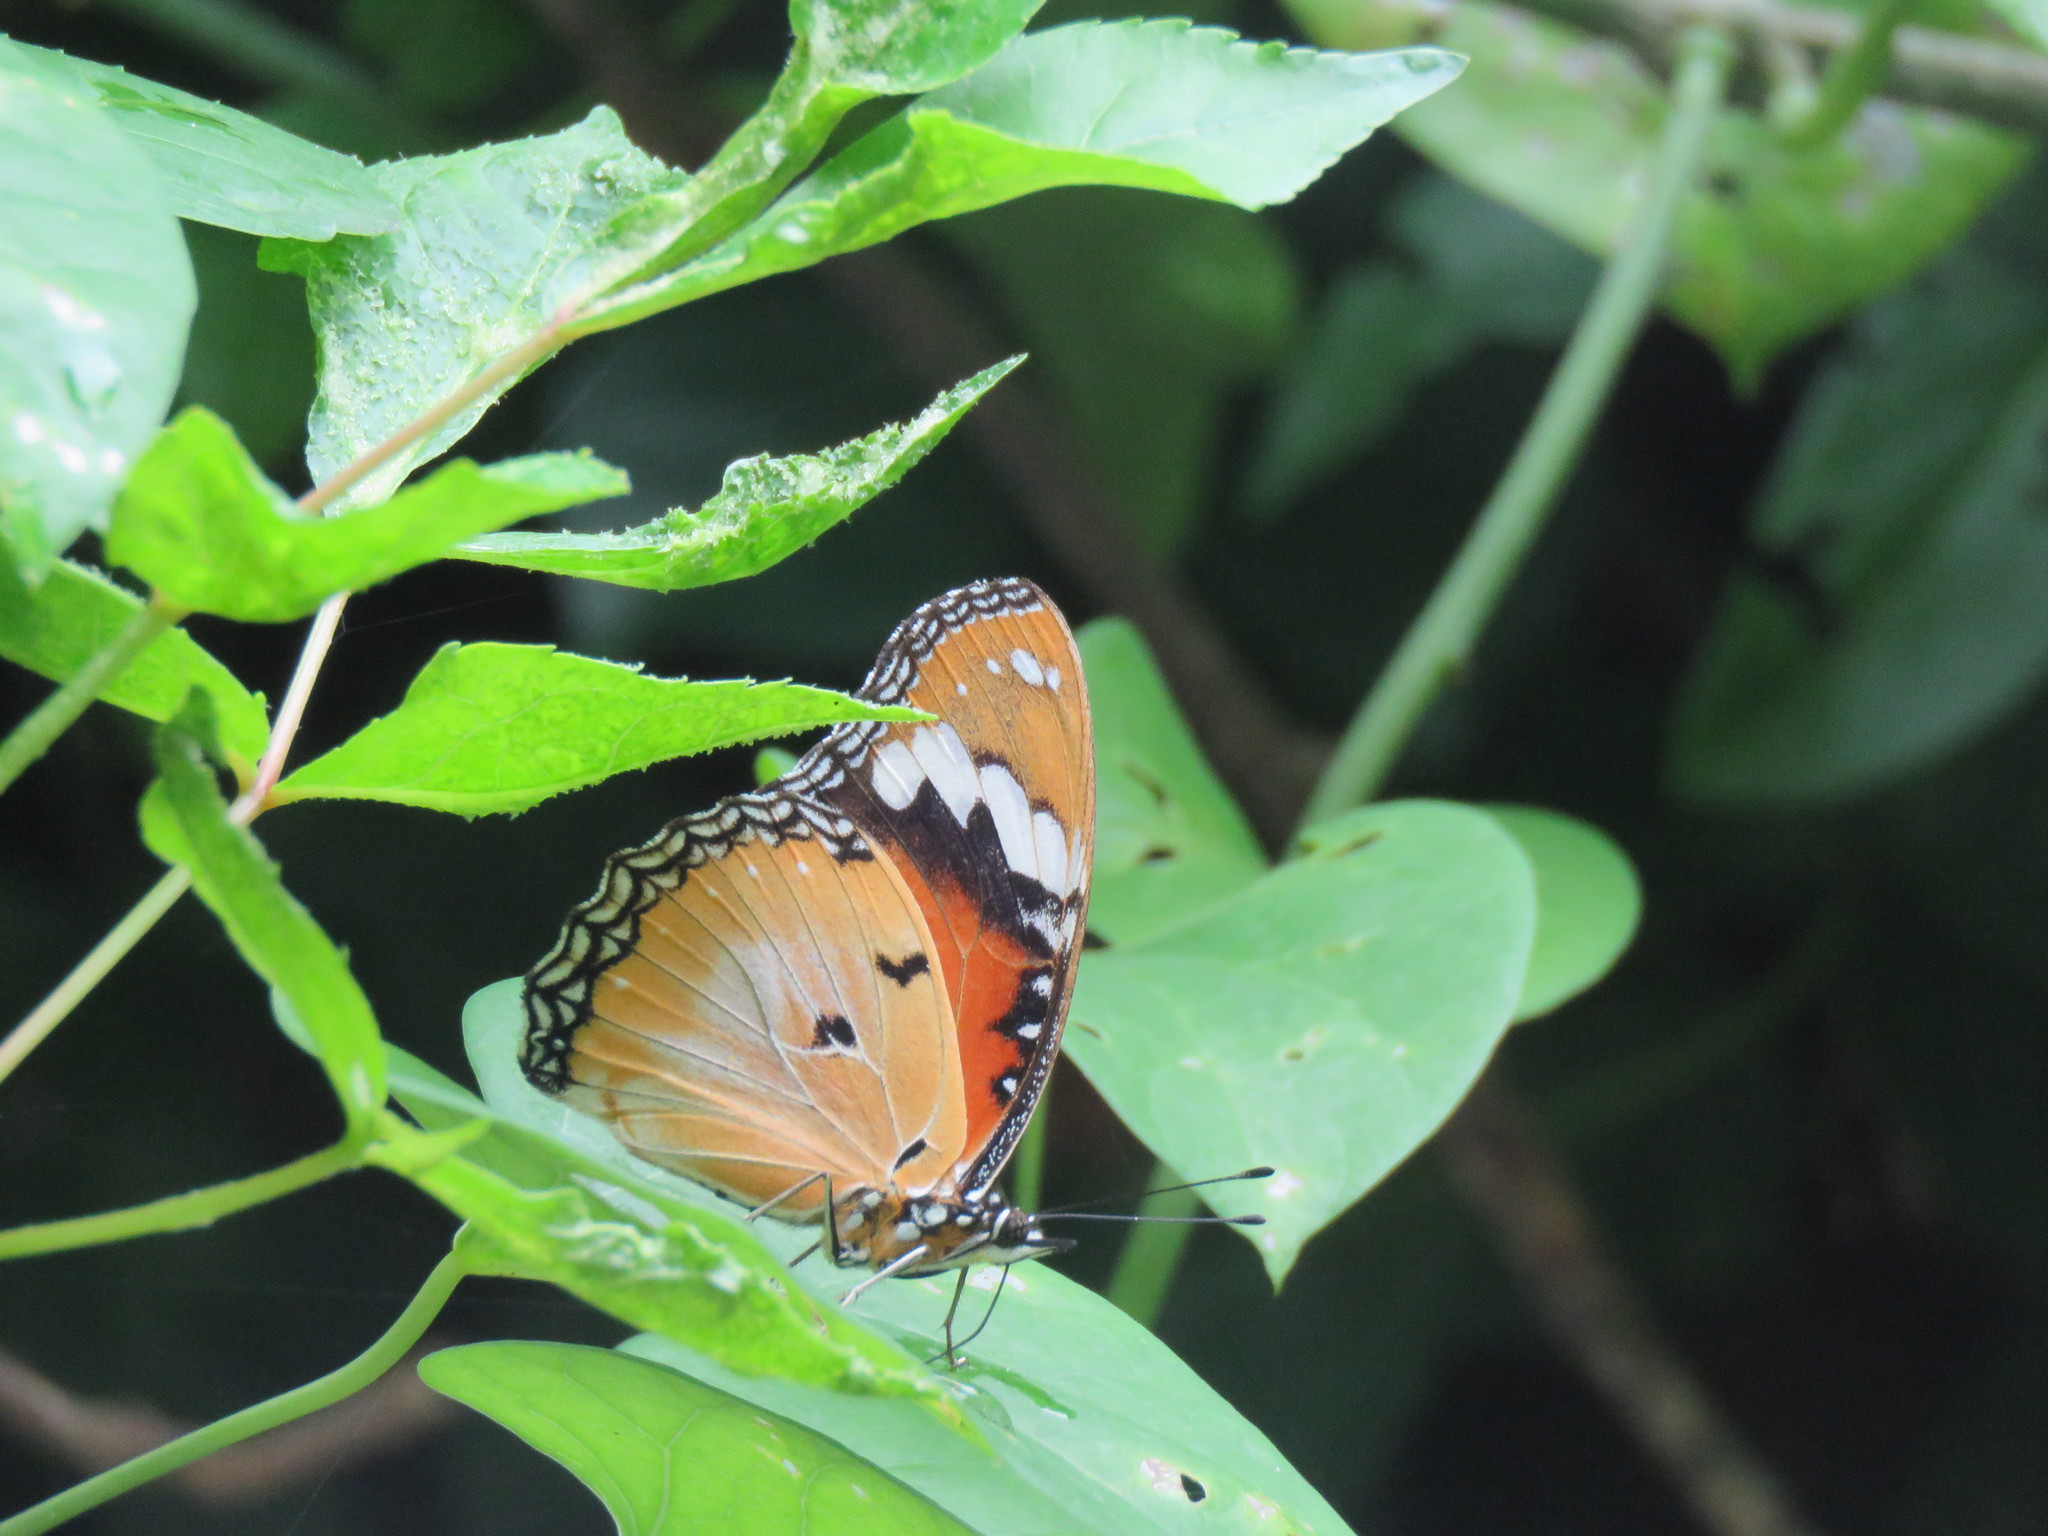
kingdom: Animalia
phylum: Arthropoda
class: Insecta
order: Lepidoptera
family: Nymphalidae
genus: Hypolimnas
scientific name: Hypolimnas misippus
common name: False plain tiger
